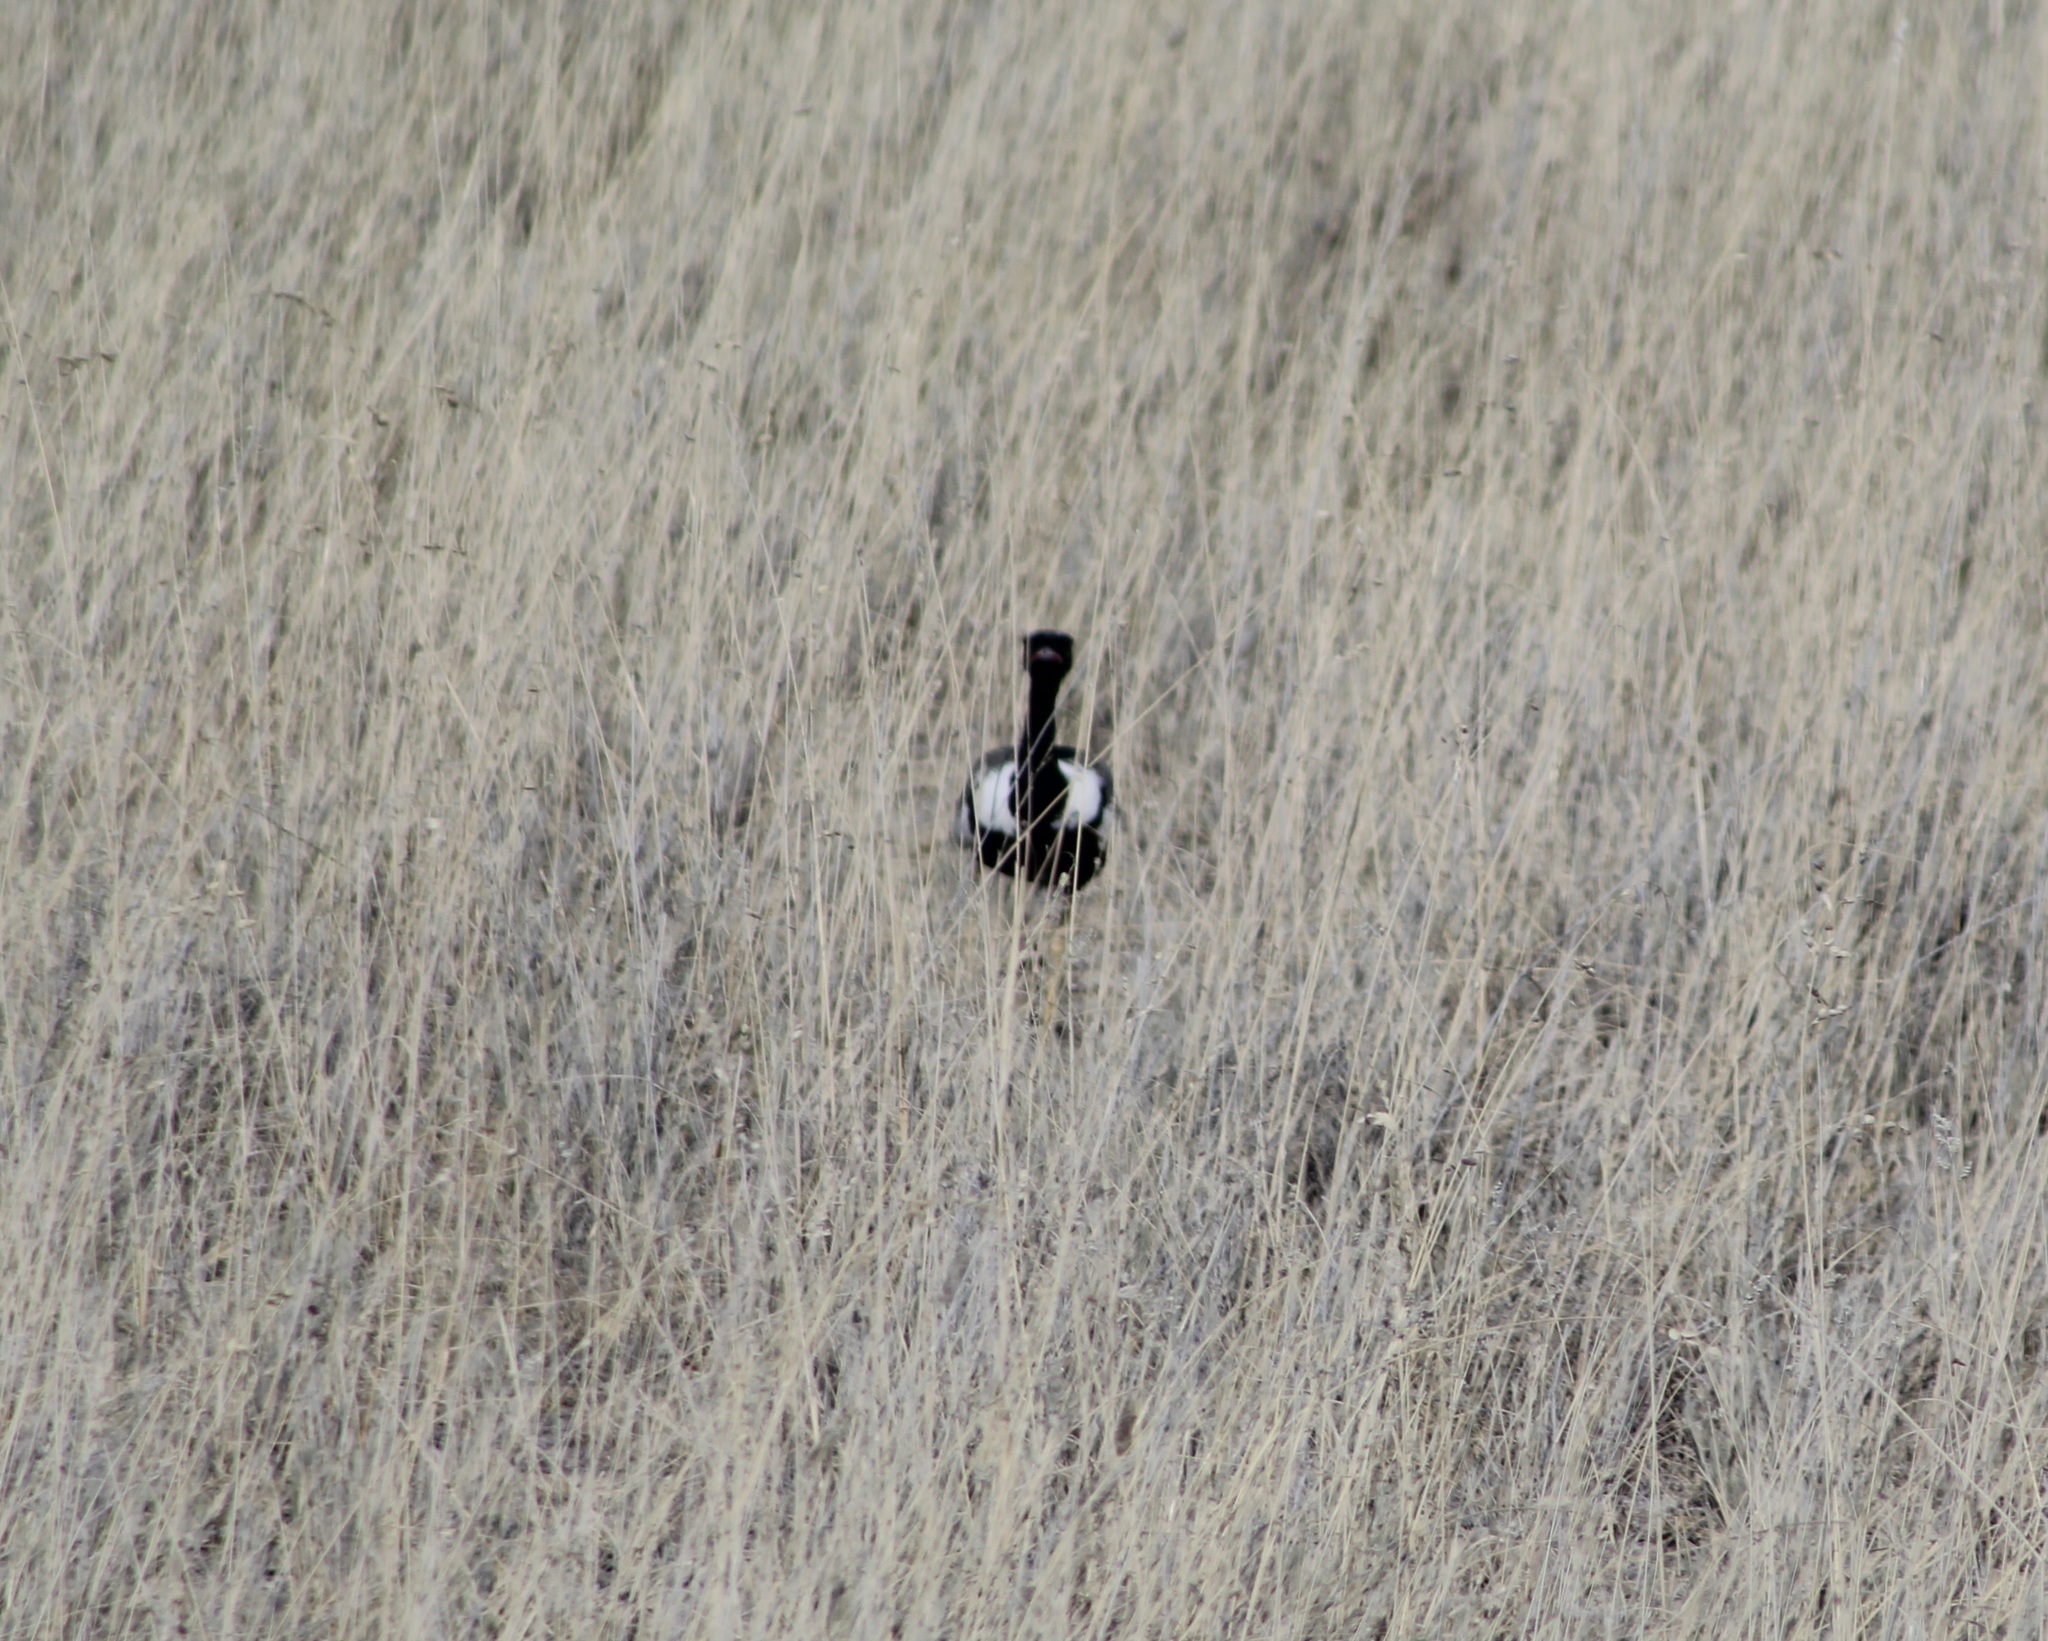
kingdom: Animalia
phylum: Chordata
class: Aves
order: Otidiformes
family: Otididae
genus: Afrotis
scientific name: Afrotis afraoides
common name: Northern black korhaan
